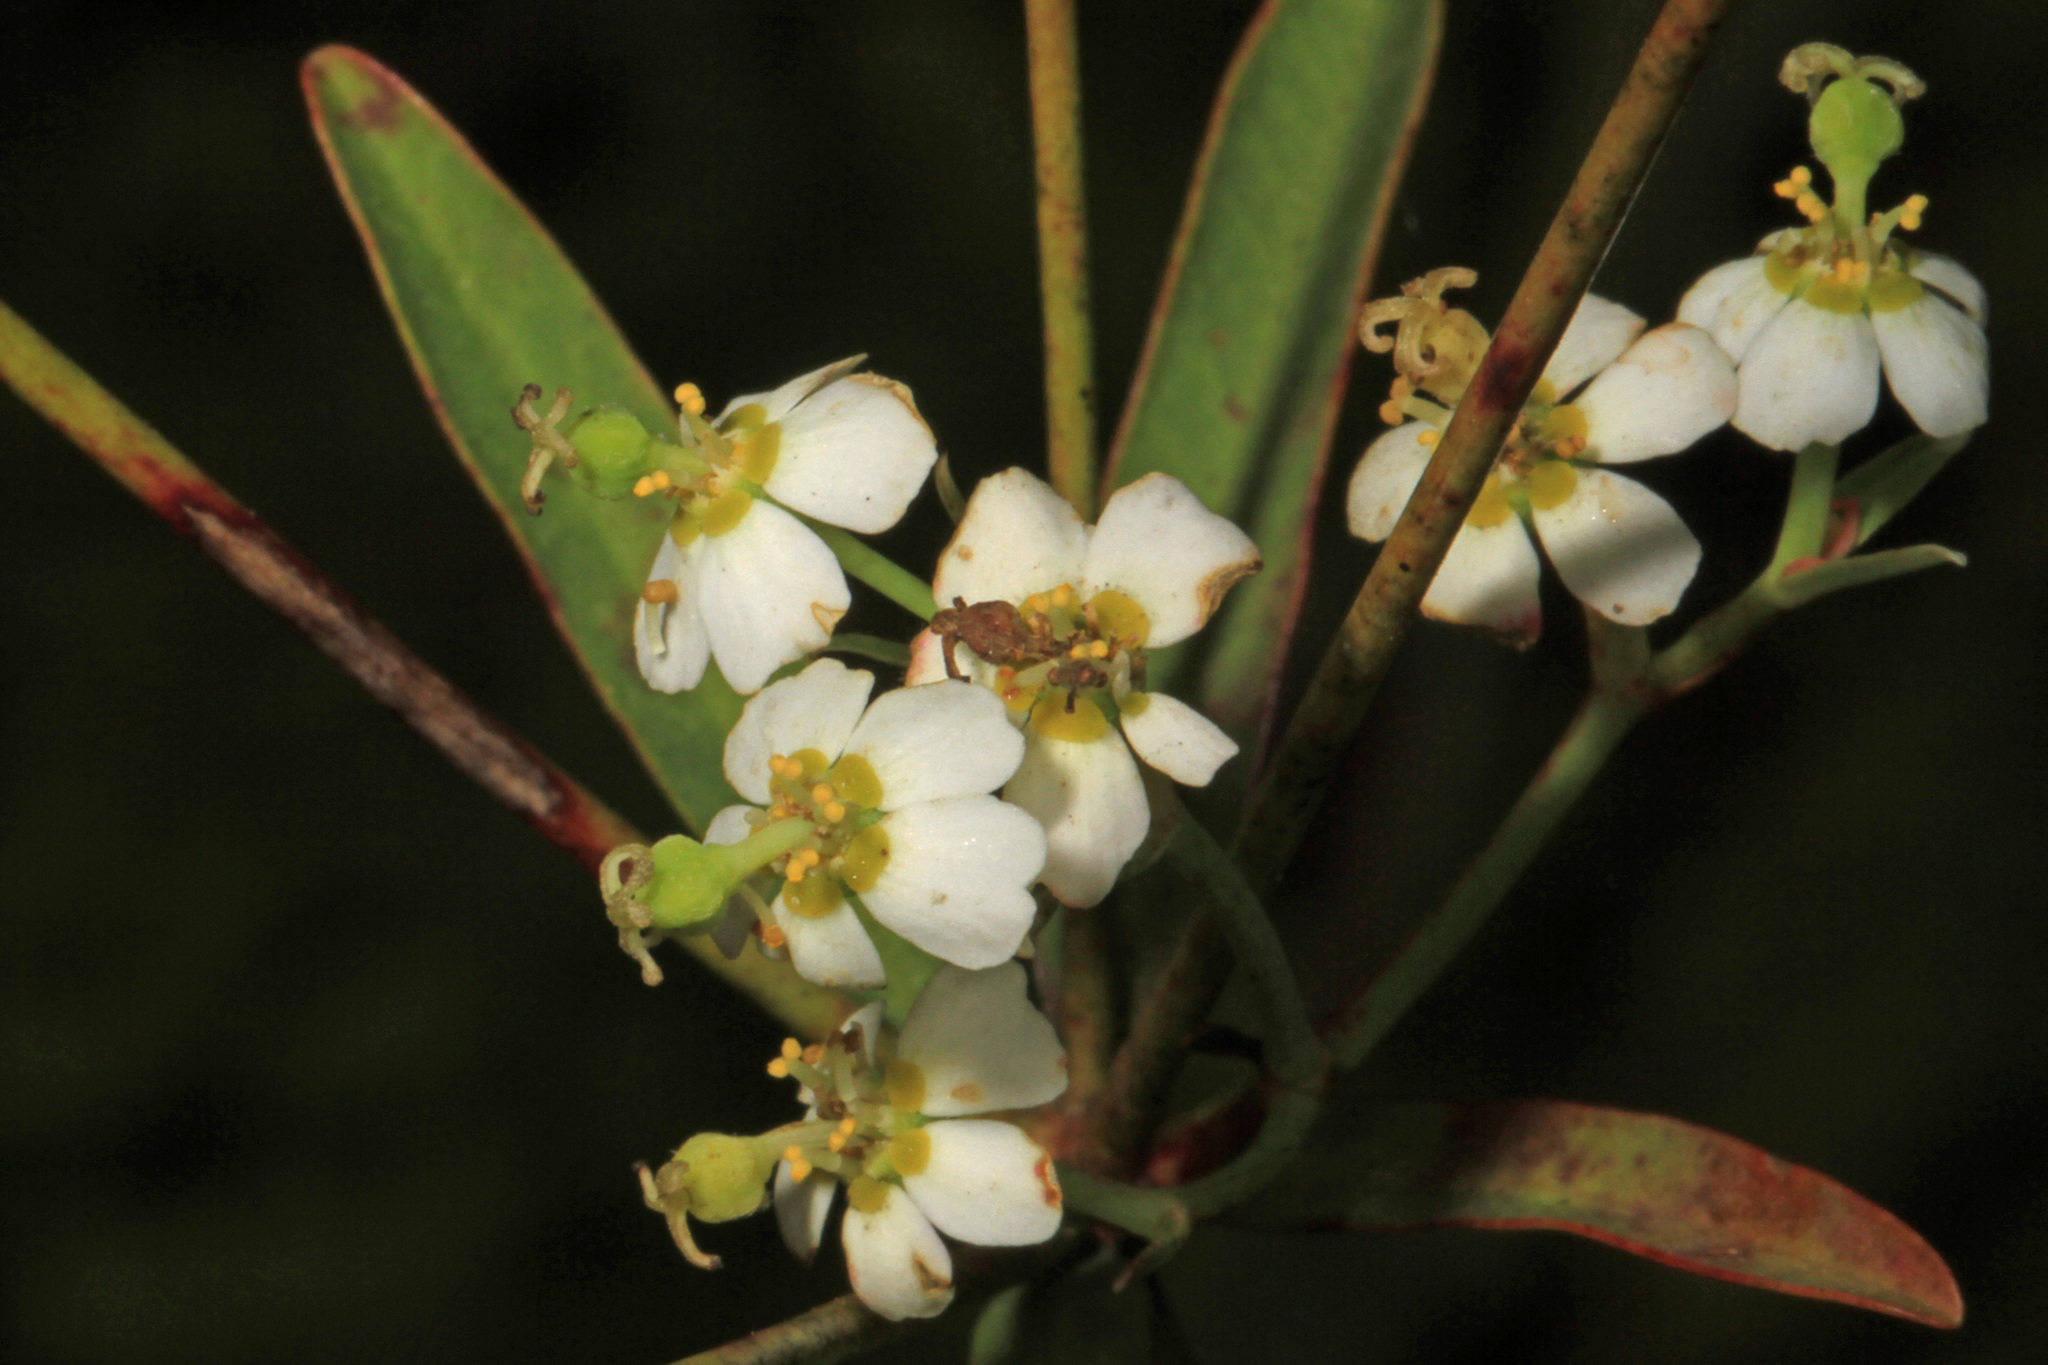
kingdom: Plantae
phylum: Tracheophyta
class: Magnoliopsida
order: Malpighiales
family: Euphorbiaceae
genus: Euphorbia
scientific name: Euphorbia corollata
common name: Flowering spurge
